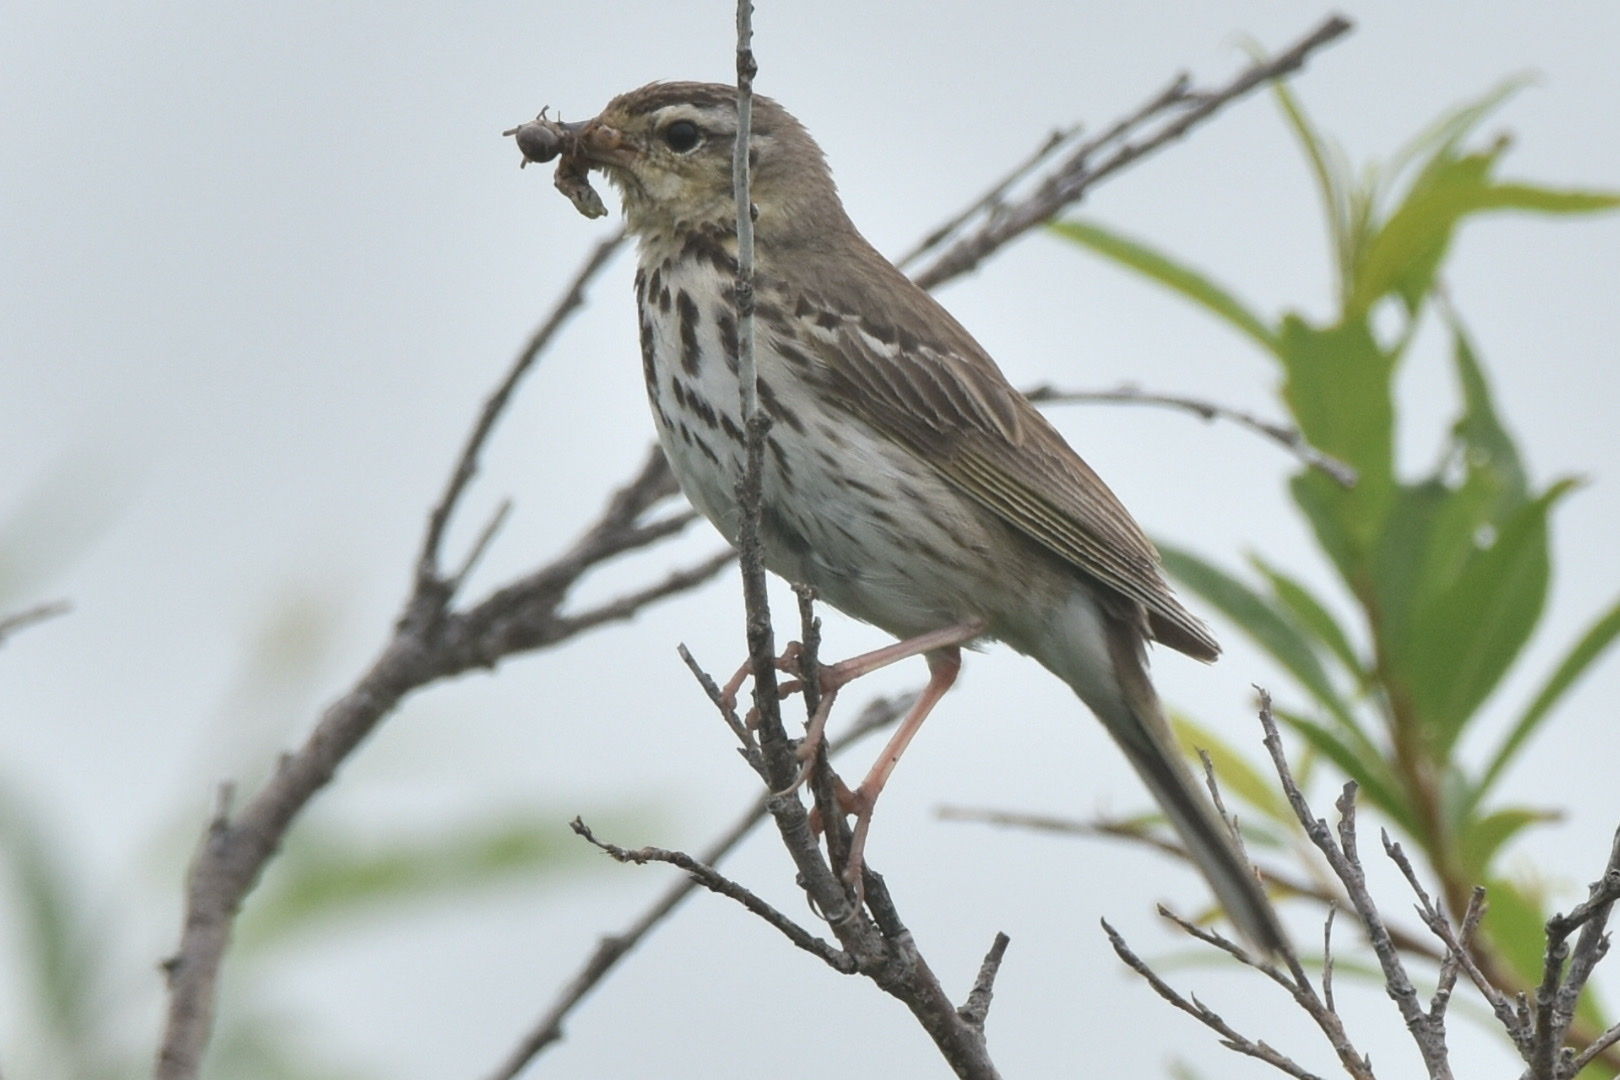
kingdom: Animalia
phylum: Chordata
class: Aves
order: Passeriformes
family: Motacillidae
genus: Anthus
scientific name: Anthus hodgsoni
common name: Olive-backed pipit
